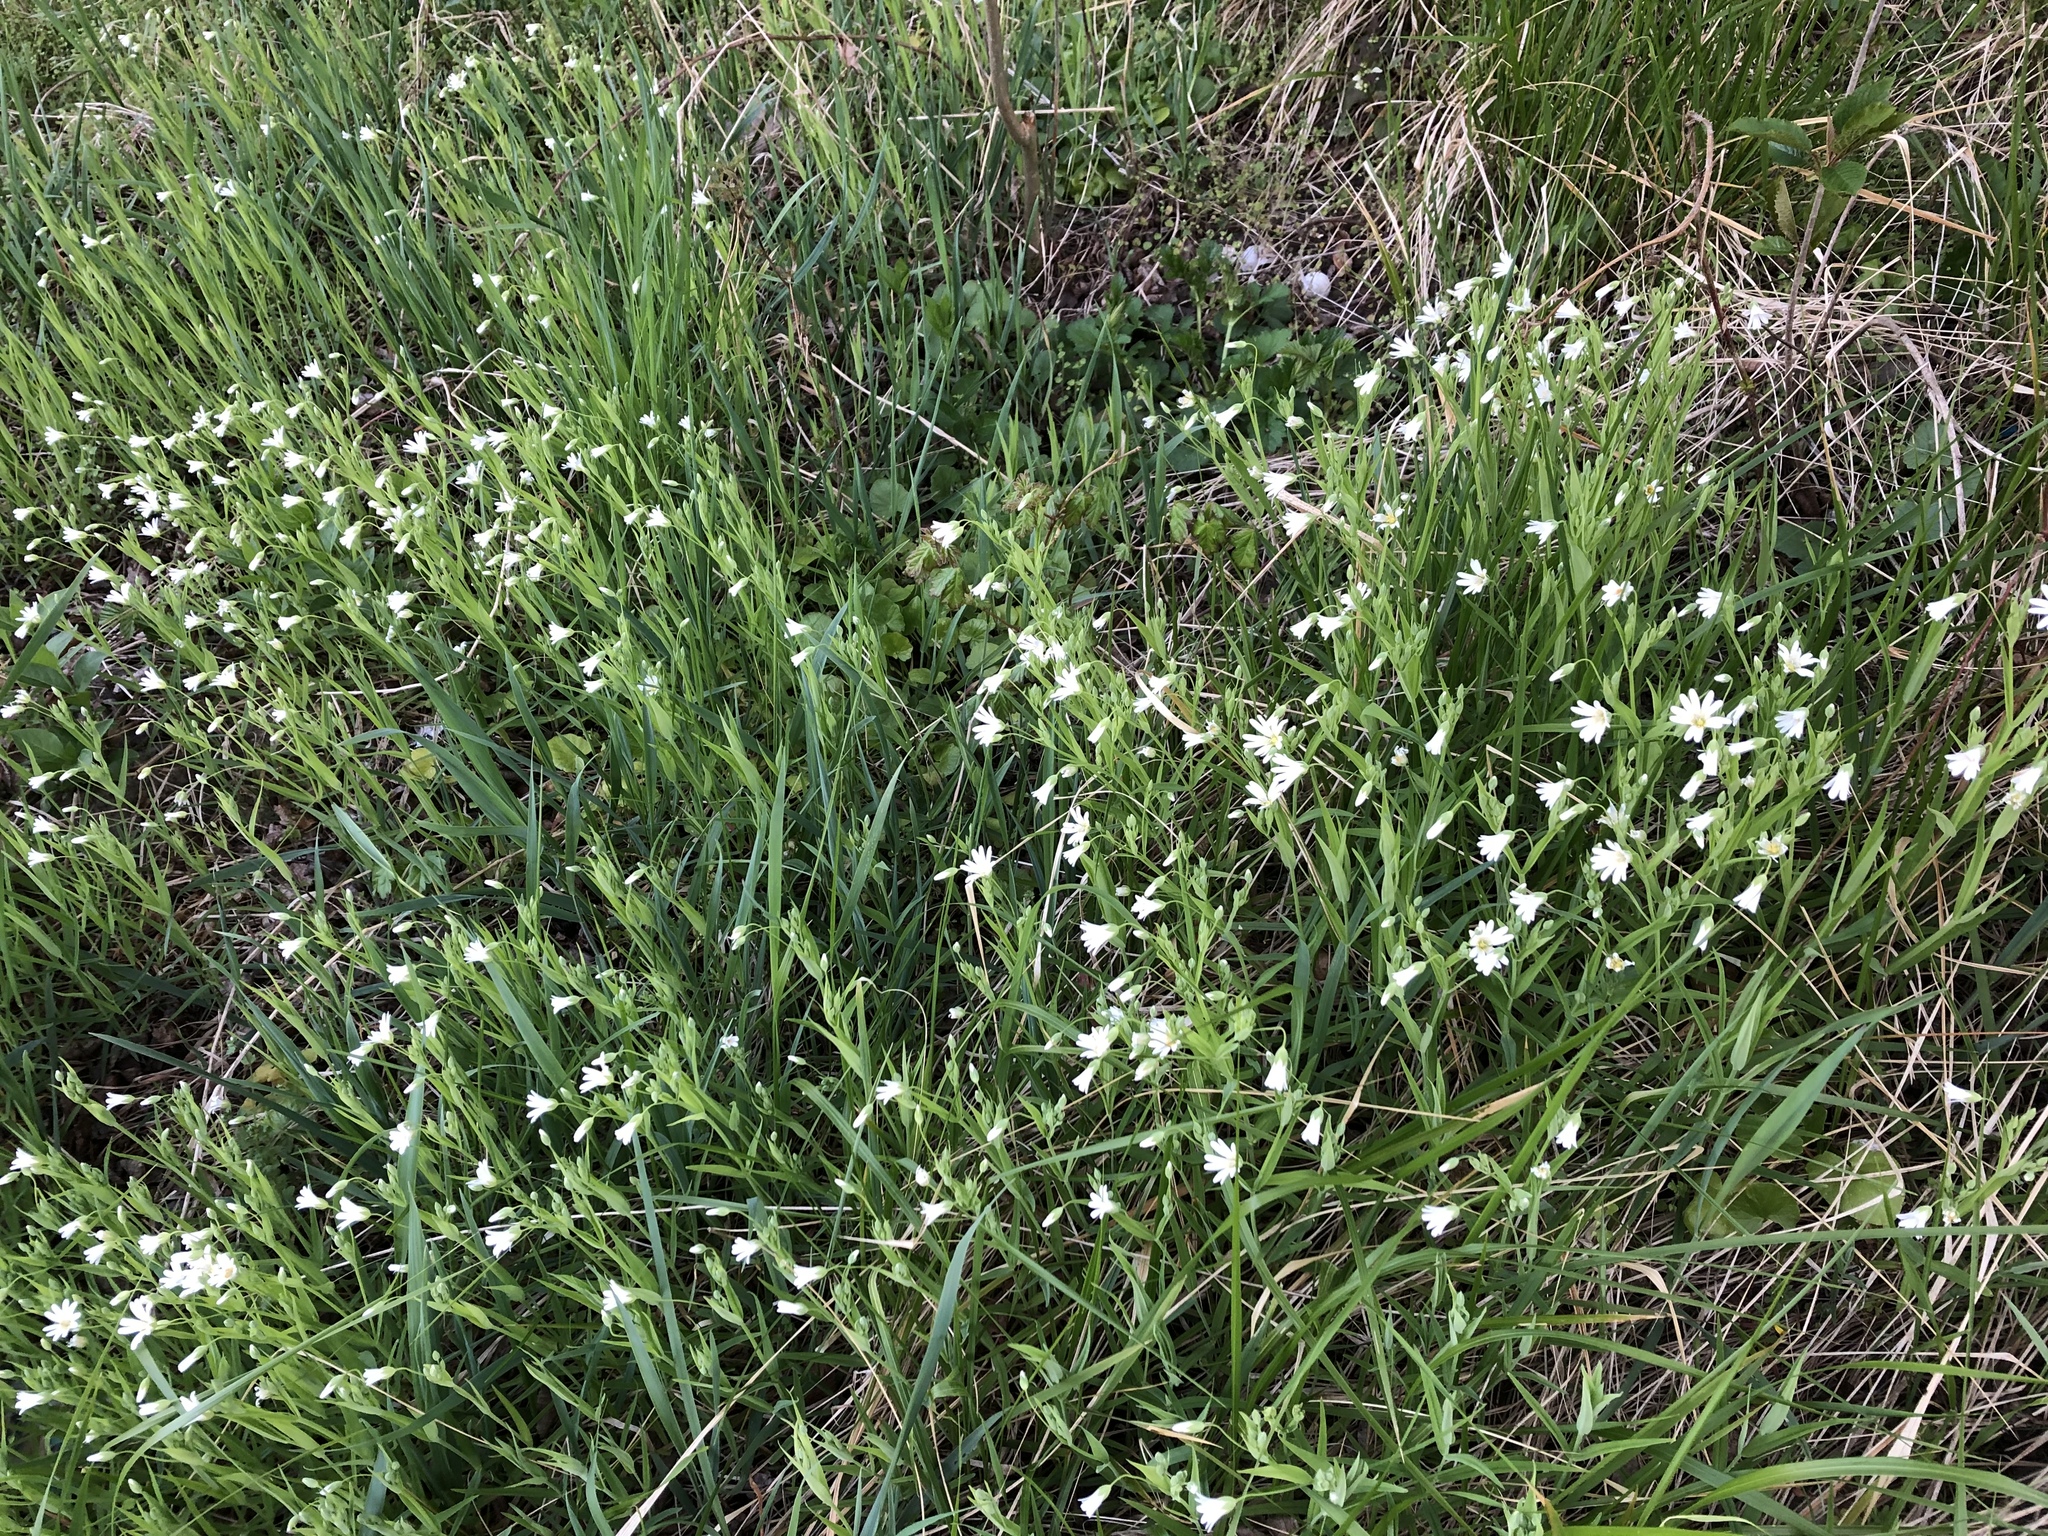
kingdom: Plantae
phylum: Tracheophyta
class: Magnoliopsida
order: Caryophyllales
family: Caryophyllaceae
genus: Rabelera
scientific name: Rabelera holostea
